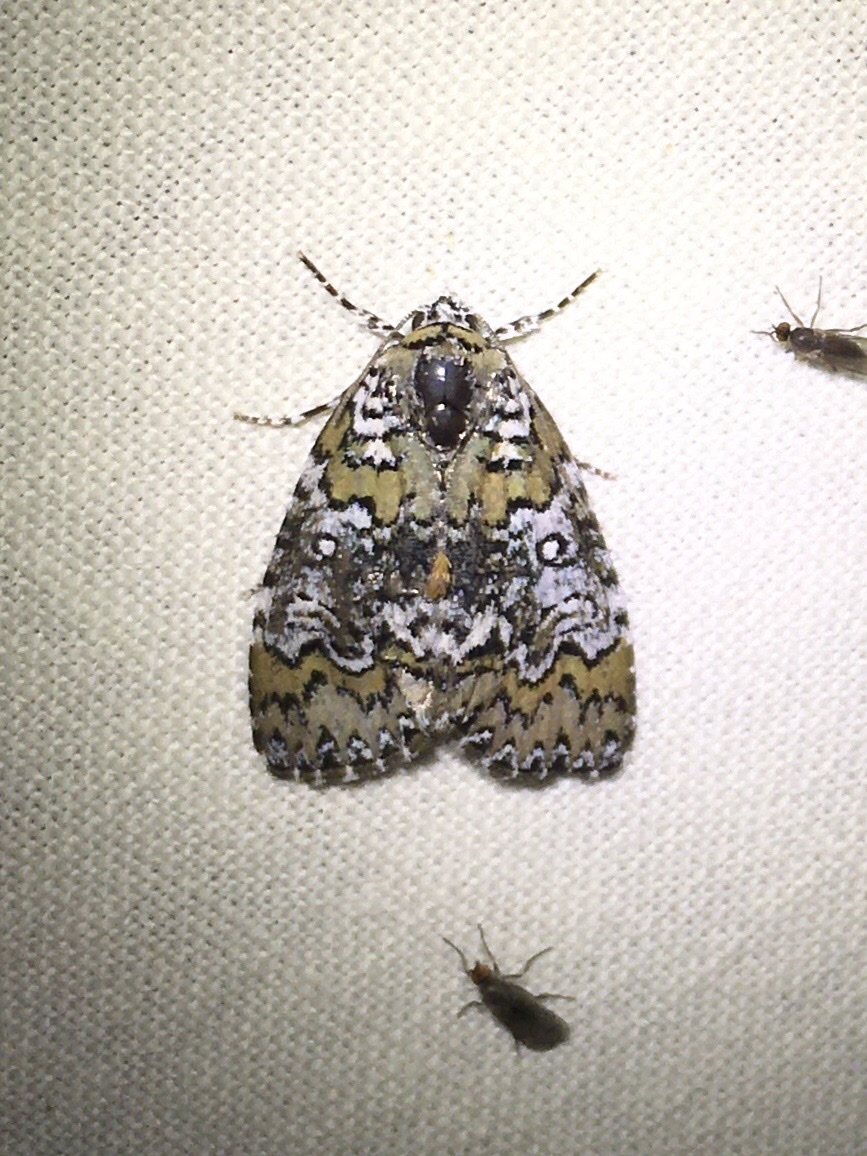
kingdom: Animalia
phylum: Arthropoda
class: Insecta
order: Lepidoptera
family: Noctuidae
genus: Cerma
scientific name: Cerma cora
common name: Bird dropping moth
